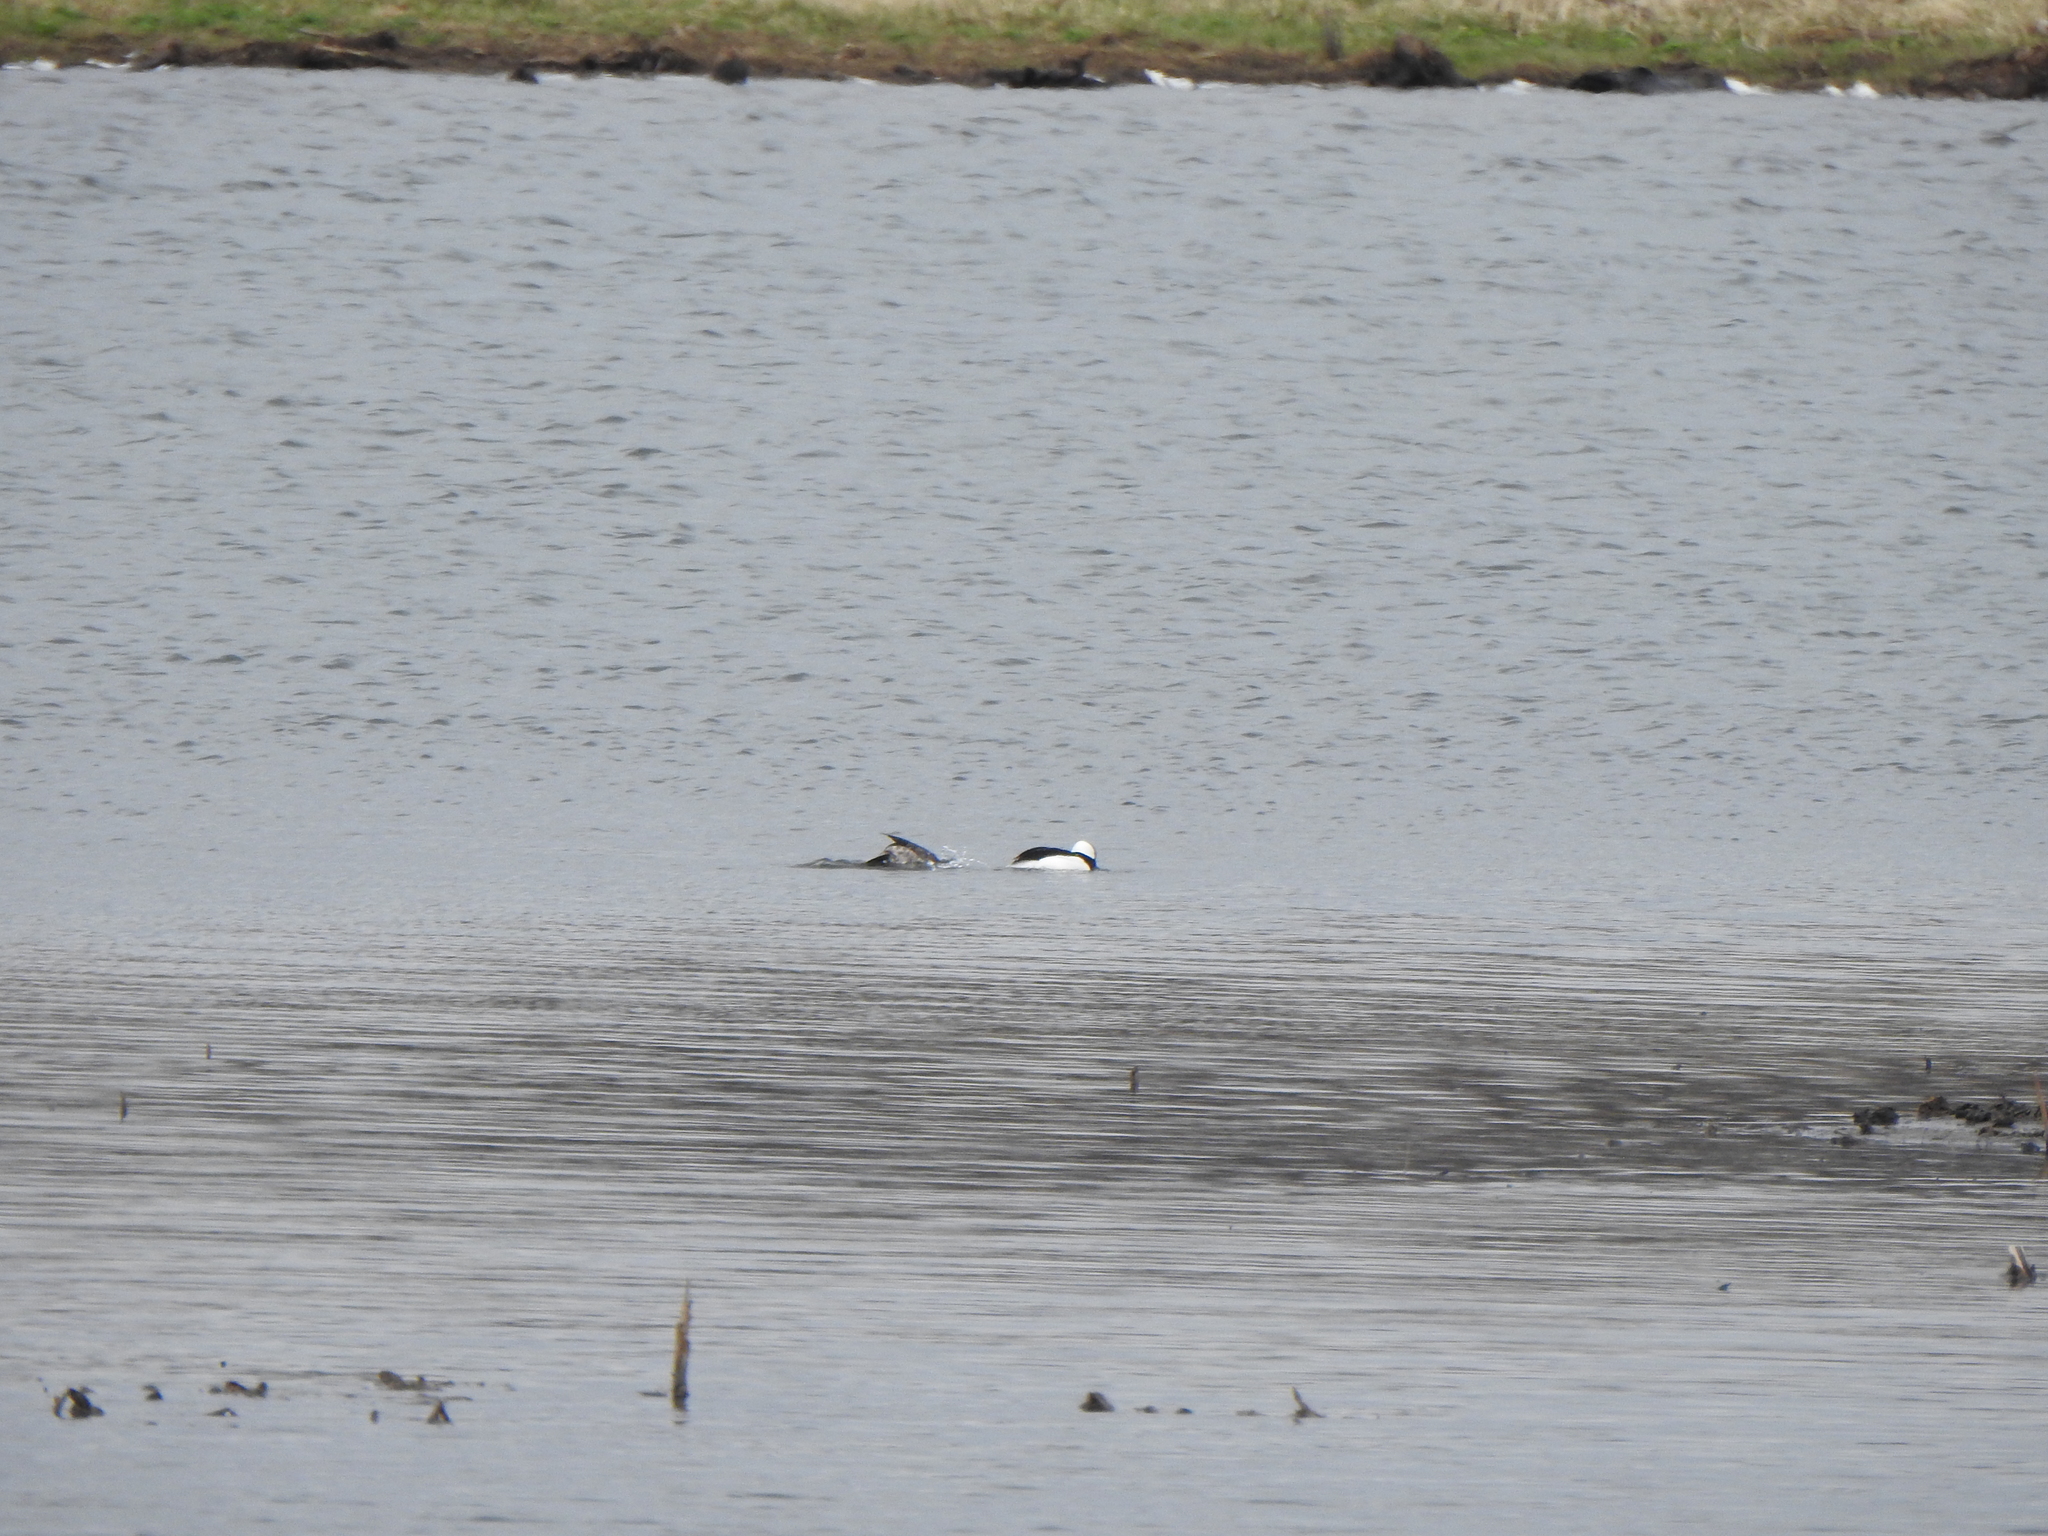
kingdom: Animalia
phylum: Chordata
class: Aves
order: Anseriformes
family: Anatidae
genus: Bucephala
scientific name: Bucephala albeola
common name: Bufflehead
